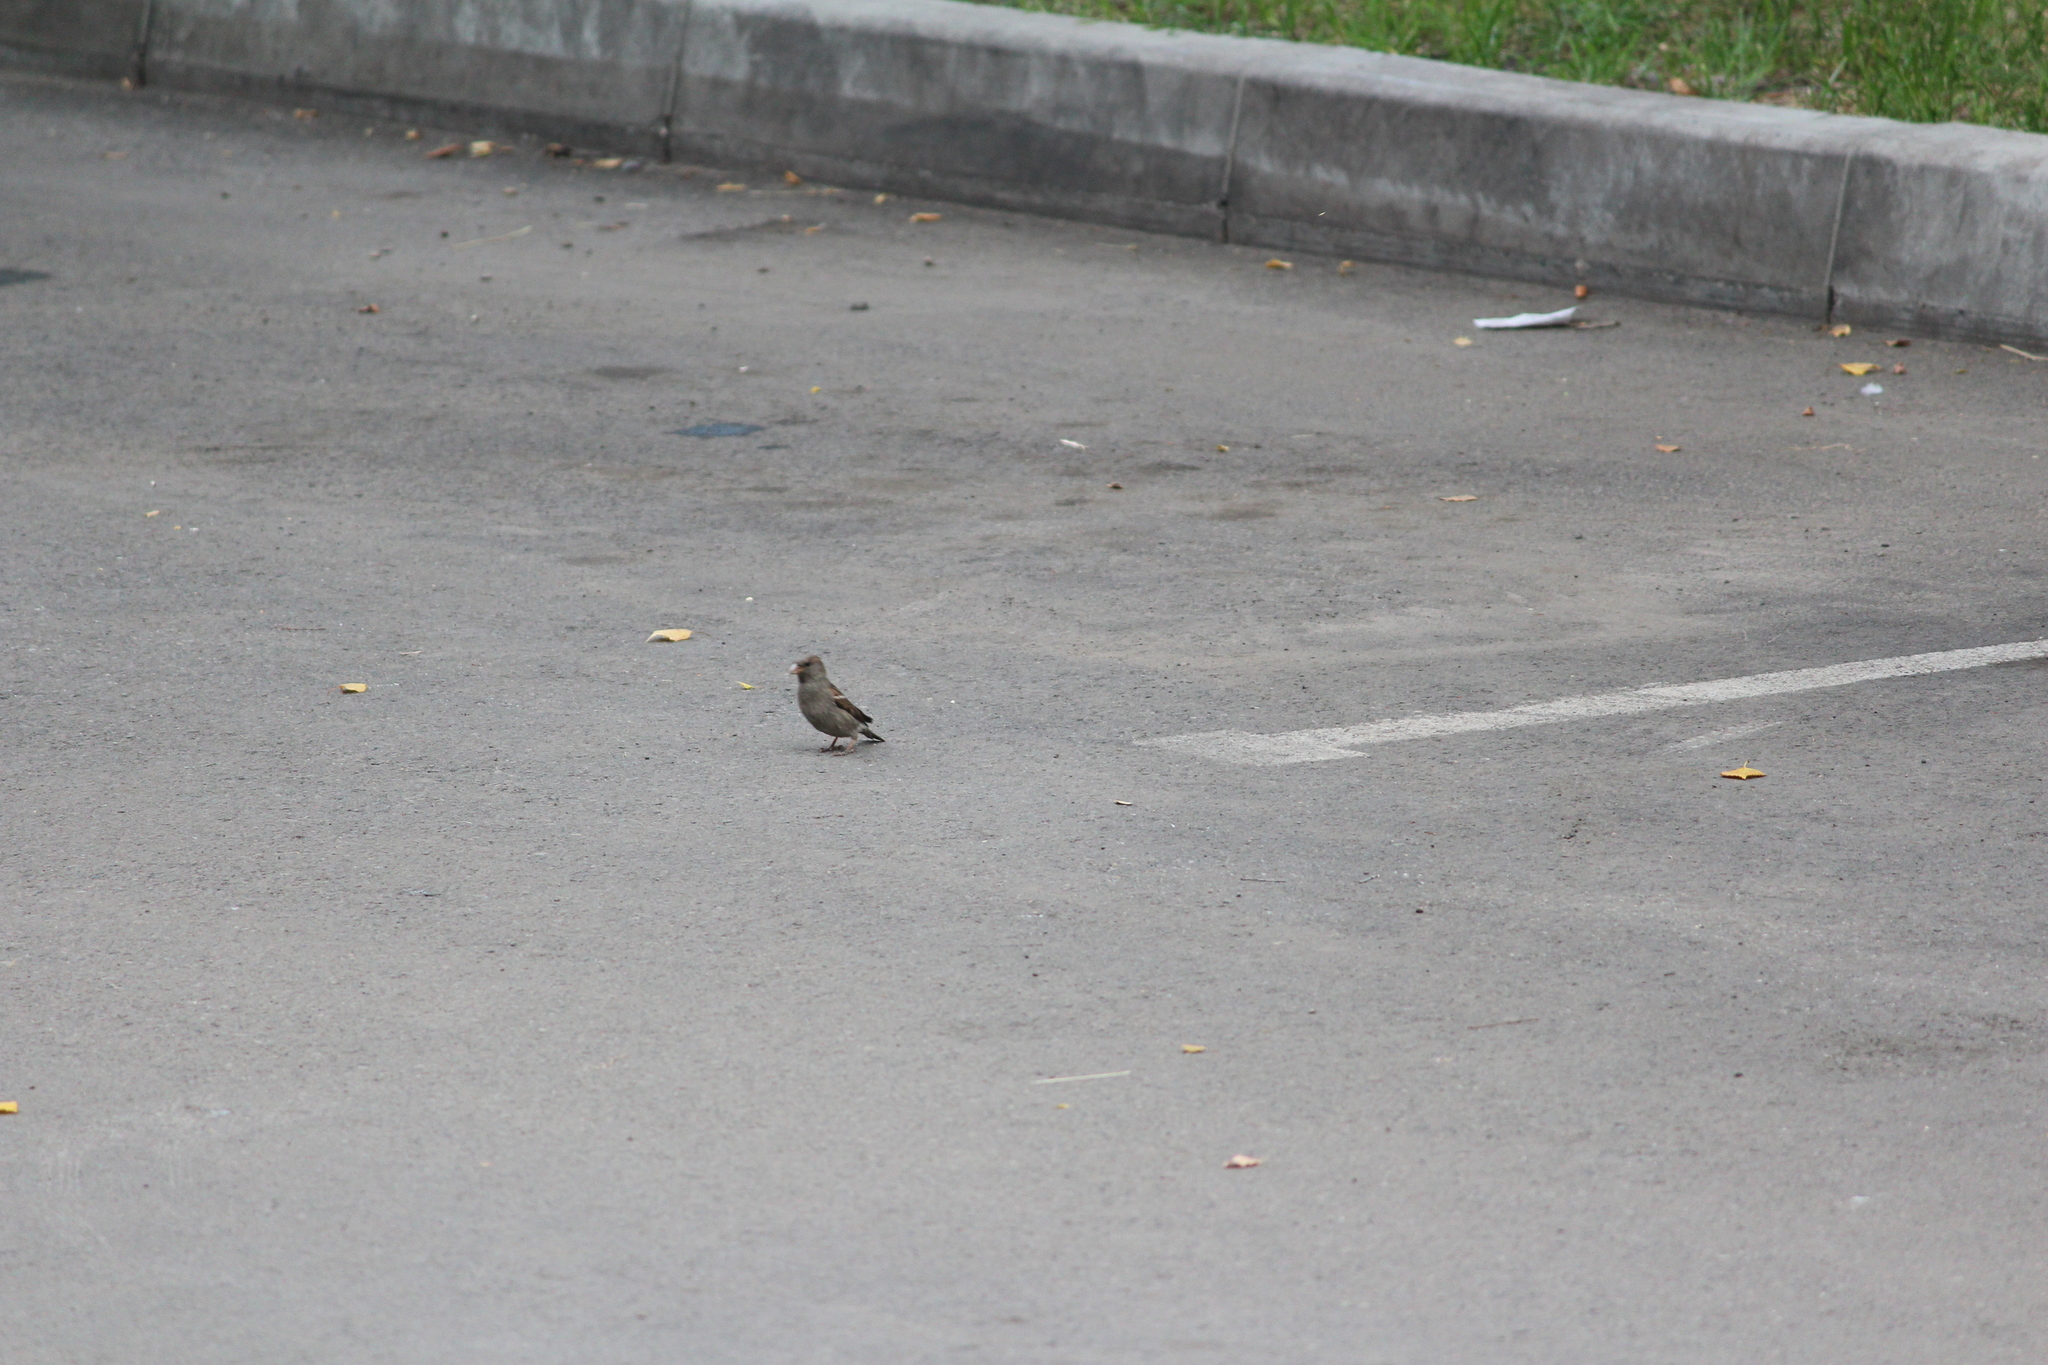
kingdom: Animalia
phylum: Chordata
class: Aves
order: Passeriformes
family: Passeridae
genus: Passer
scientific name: Passer domesticus
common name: House sparrow
